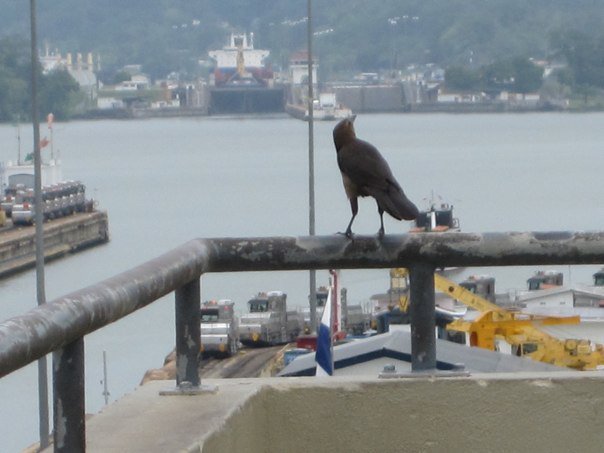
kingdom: Animalia
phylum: Chordata
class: Aves
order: Passeriformes
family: Icteridae
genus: Quiscalus
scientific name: Quiscalus mexicanus
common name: Great-tailed grackle
